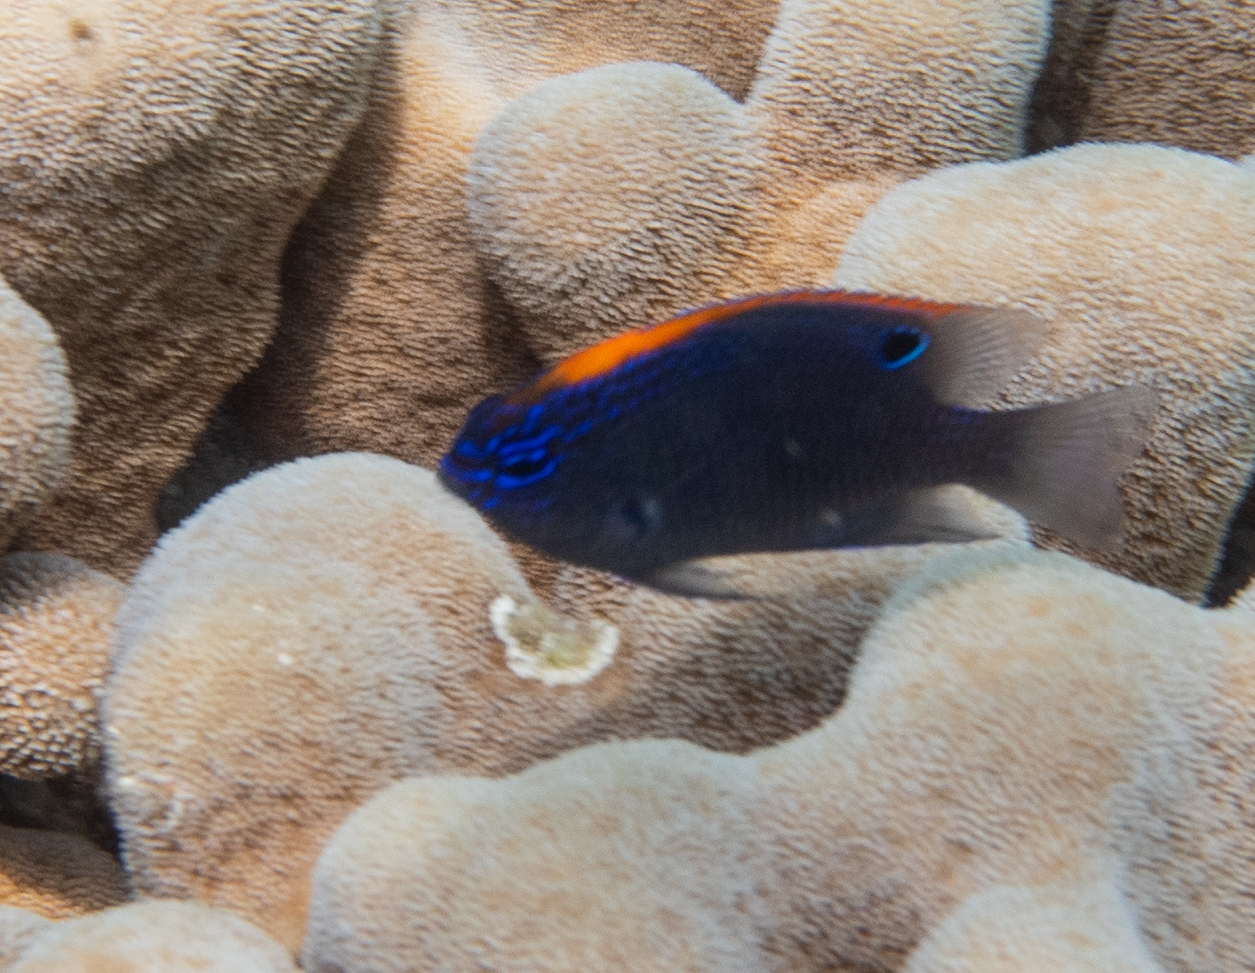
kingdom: Animalia
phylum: Chordata
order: Perciformes
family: Pomacentridae
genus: Pomacentrus
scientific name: Pomacentrus indicus
